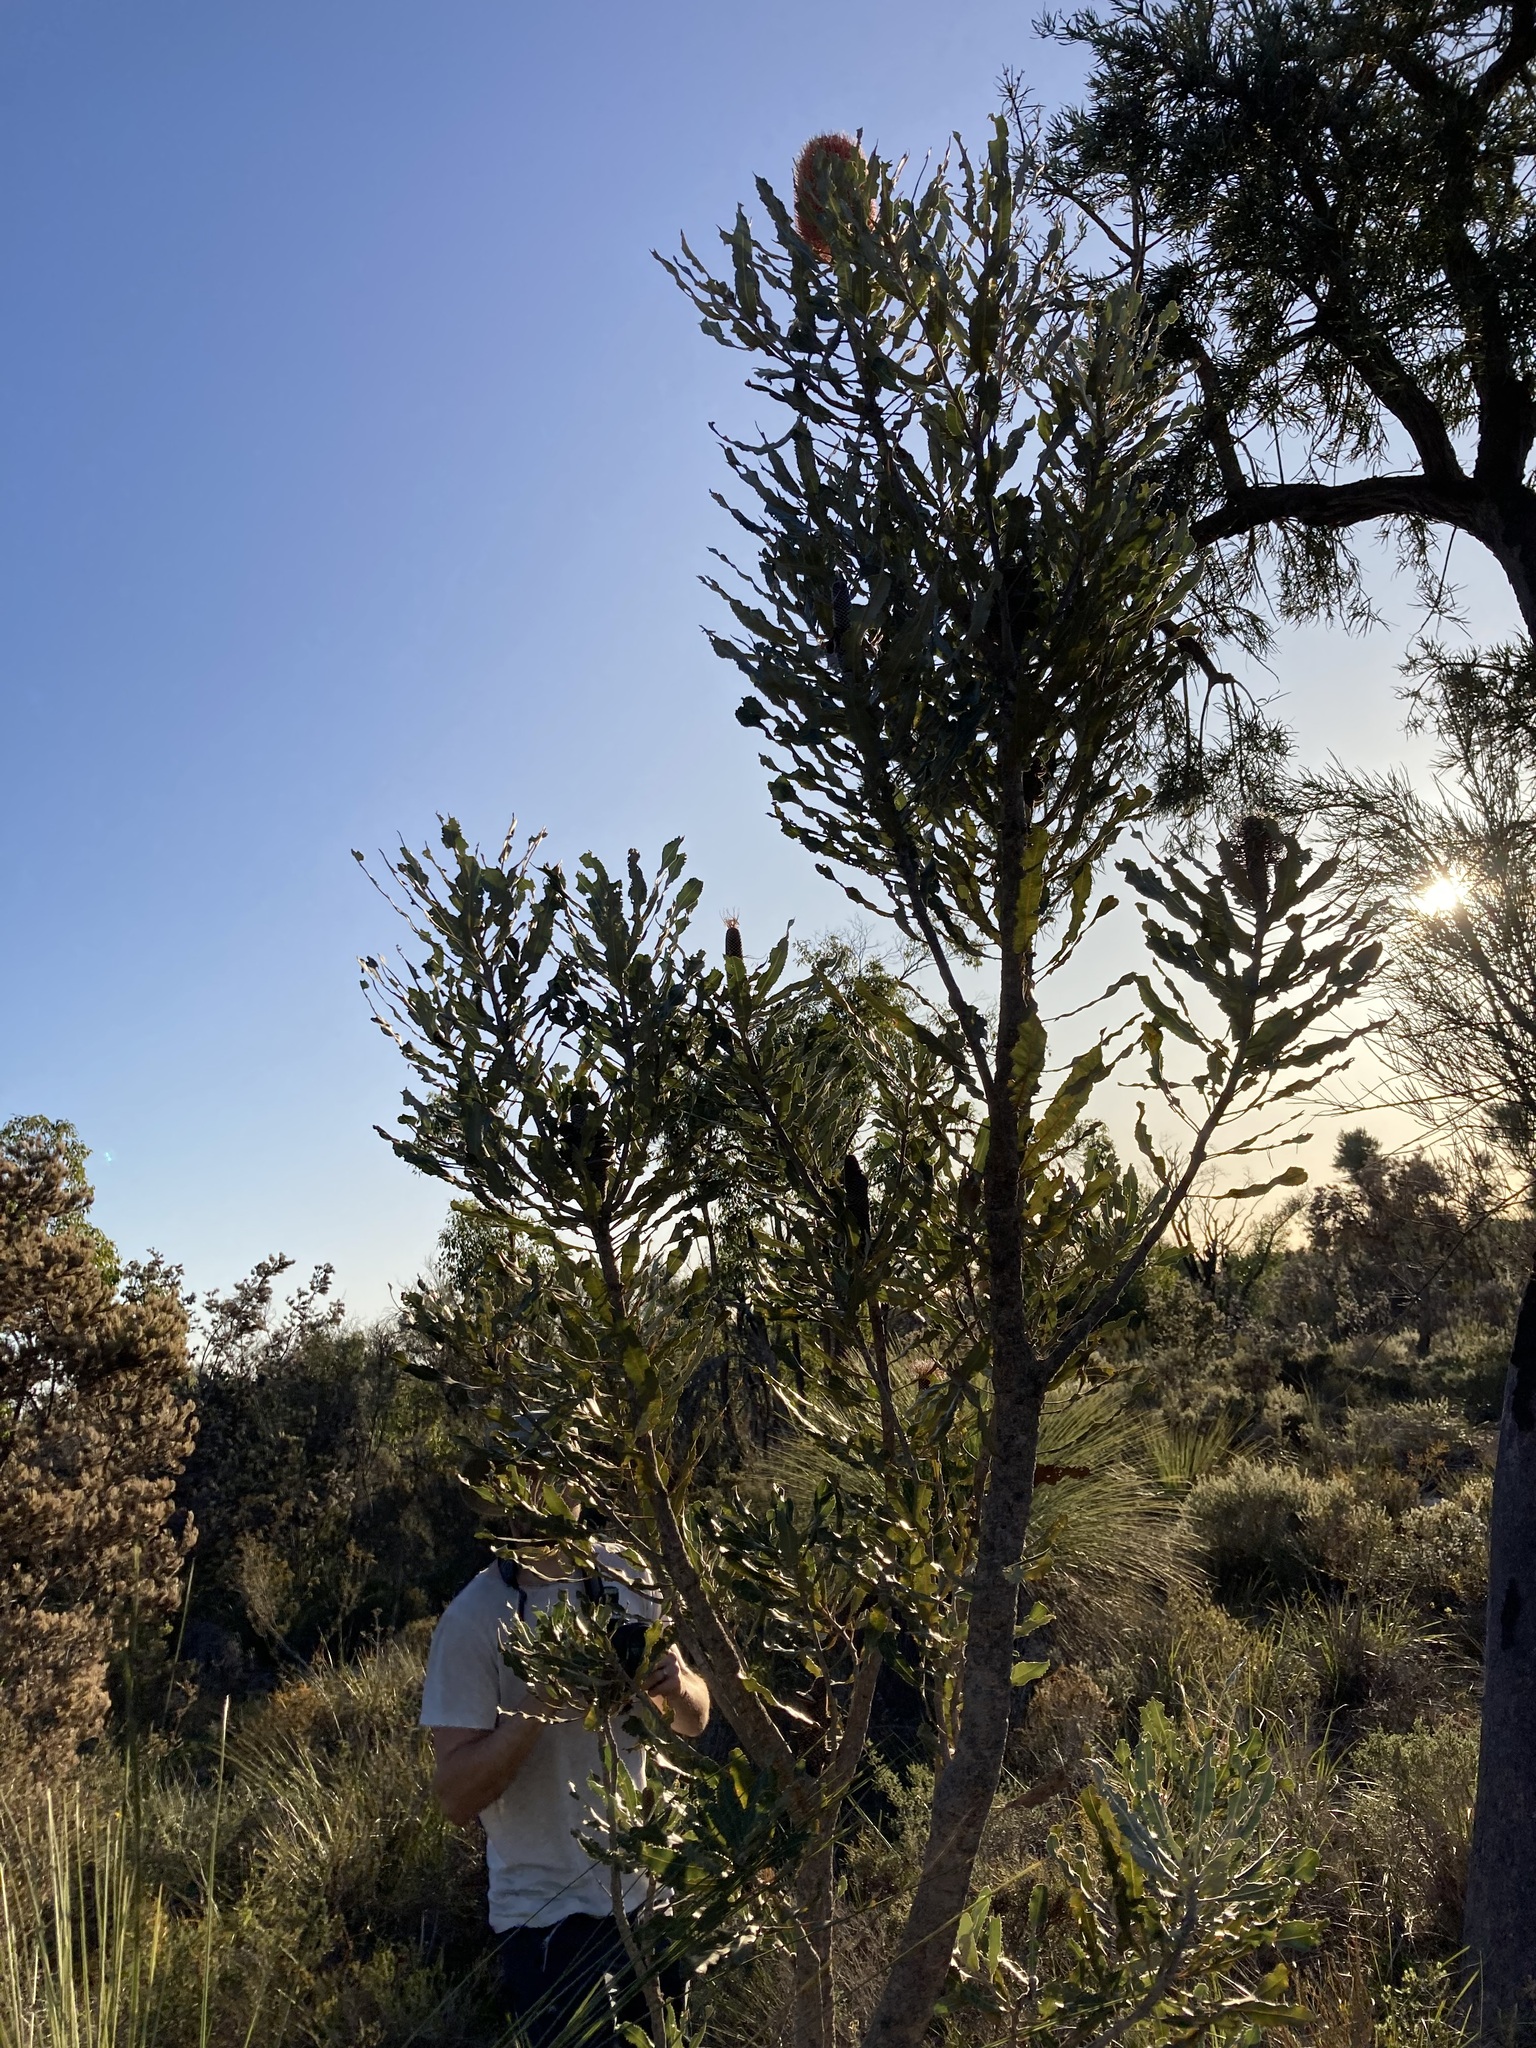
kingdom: Plantae
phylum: Tracheophyta
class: Magnoliopsida
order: Proteales
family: Proteaceae
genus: Banksia
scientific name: Banksia menziesii
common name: Menzie's banksia
